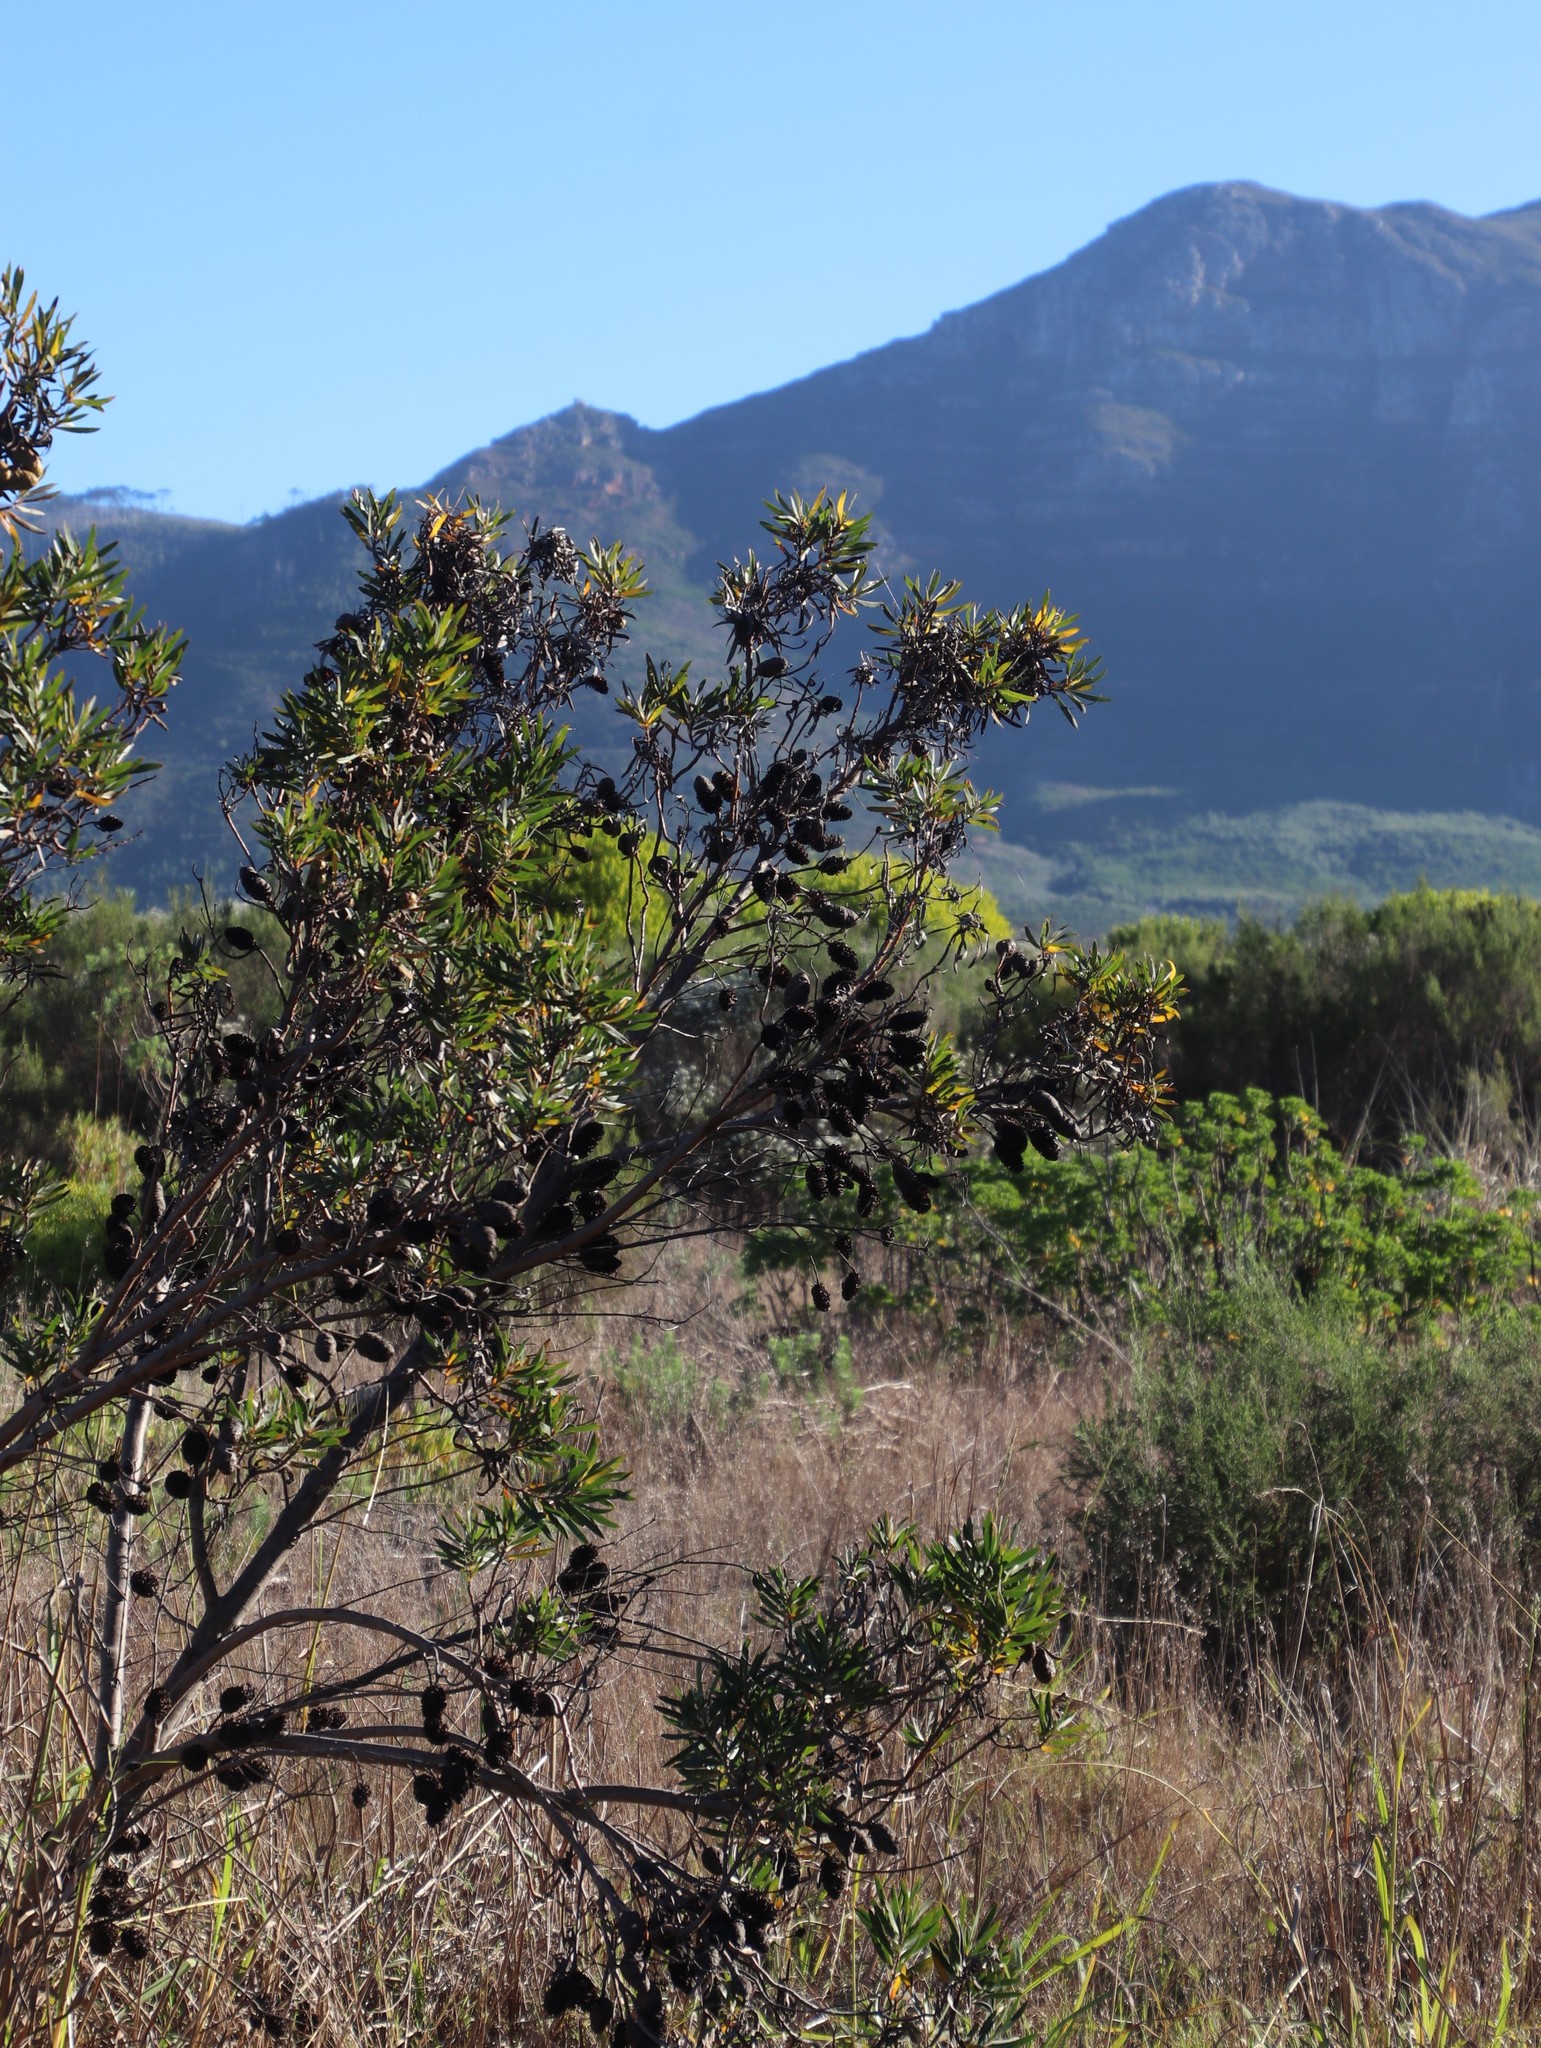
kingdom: Plantae
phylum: Tracheophyta
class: Magnoliopsida
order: Proteales
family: Proteaceae
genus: Leucadendron
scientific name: Leucadendron macowanii
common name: Acacia-leaf conebush
